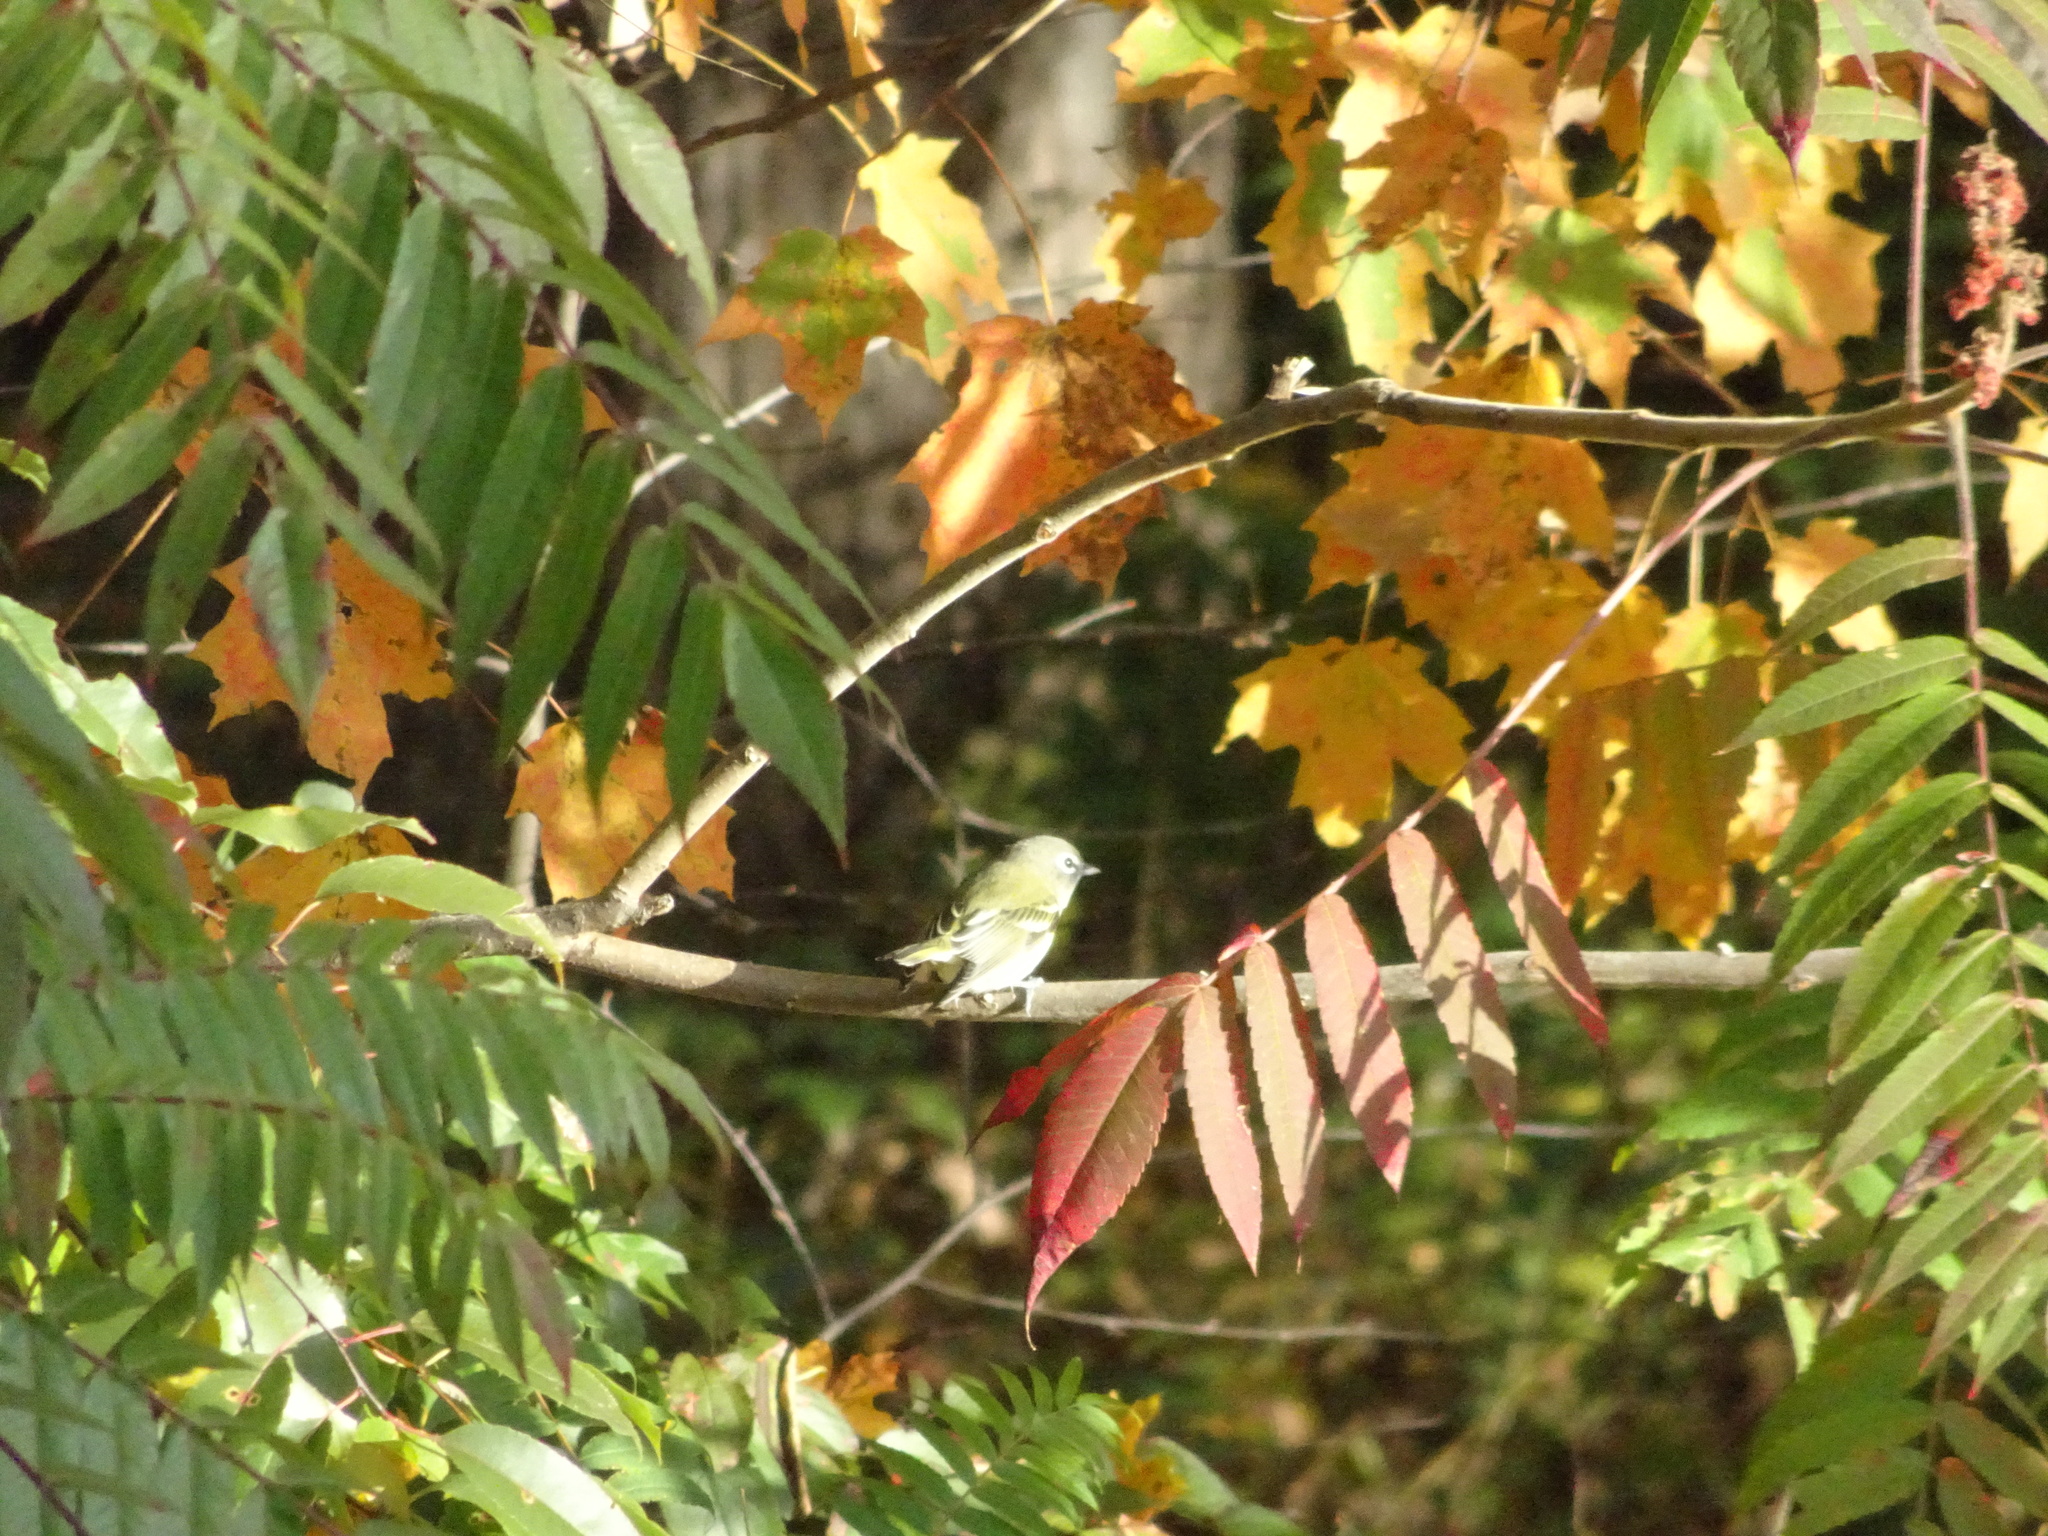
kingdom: Animalia
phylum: Chordata
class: Aves
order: Passeriformes
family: Vireonidae
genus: Vireo
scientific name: Vireo solitarius
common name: Blue-headed vireo
